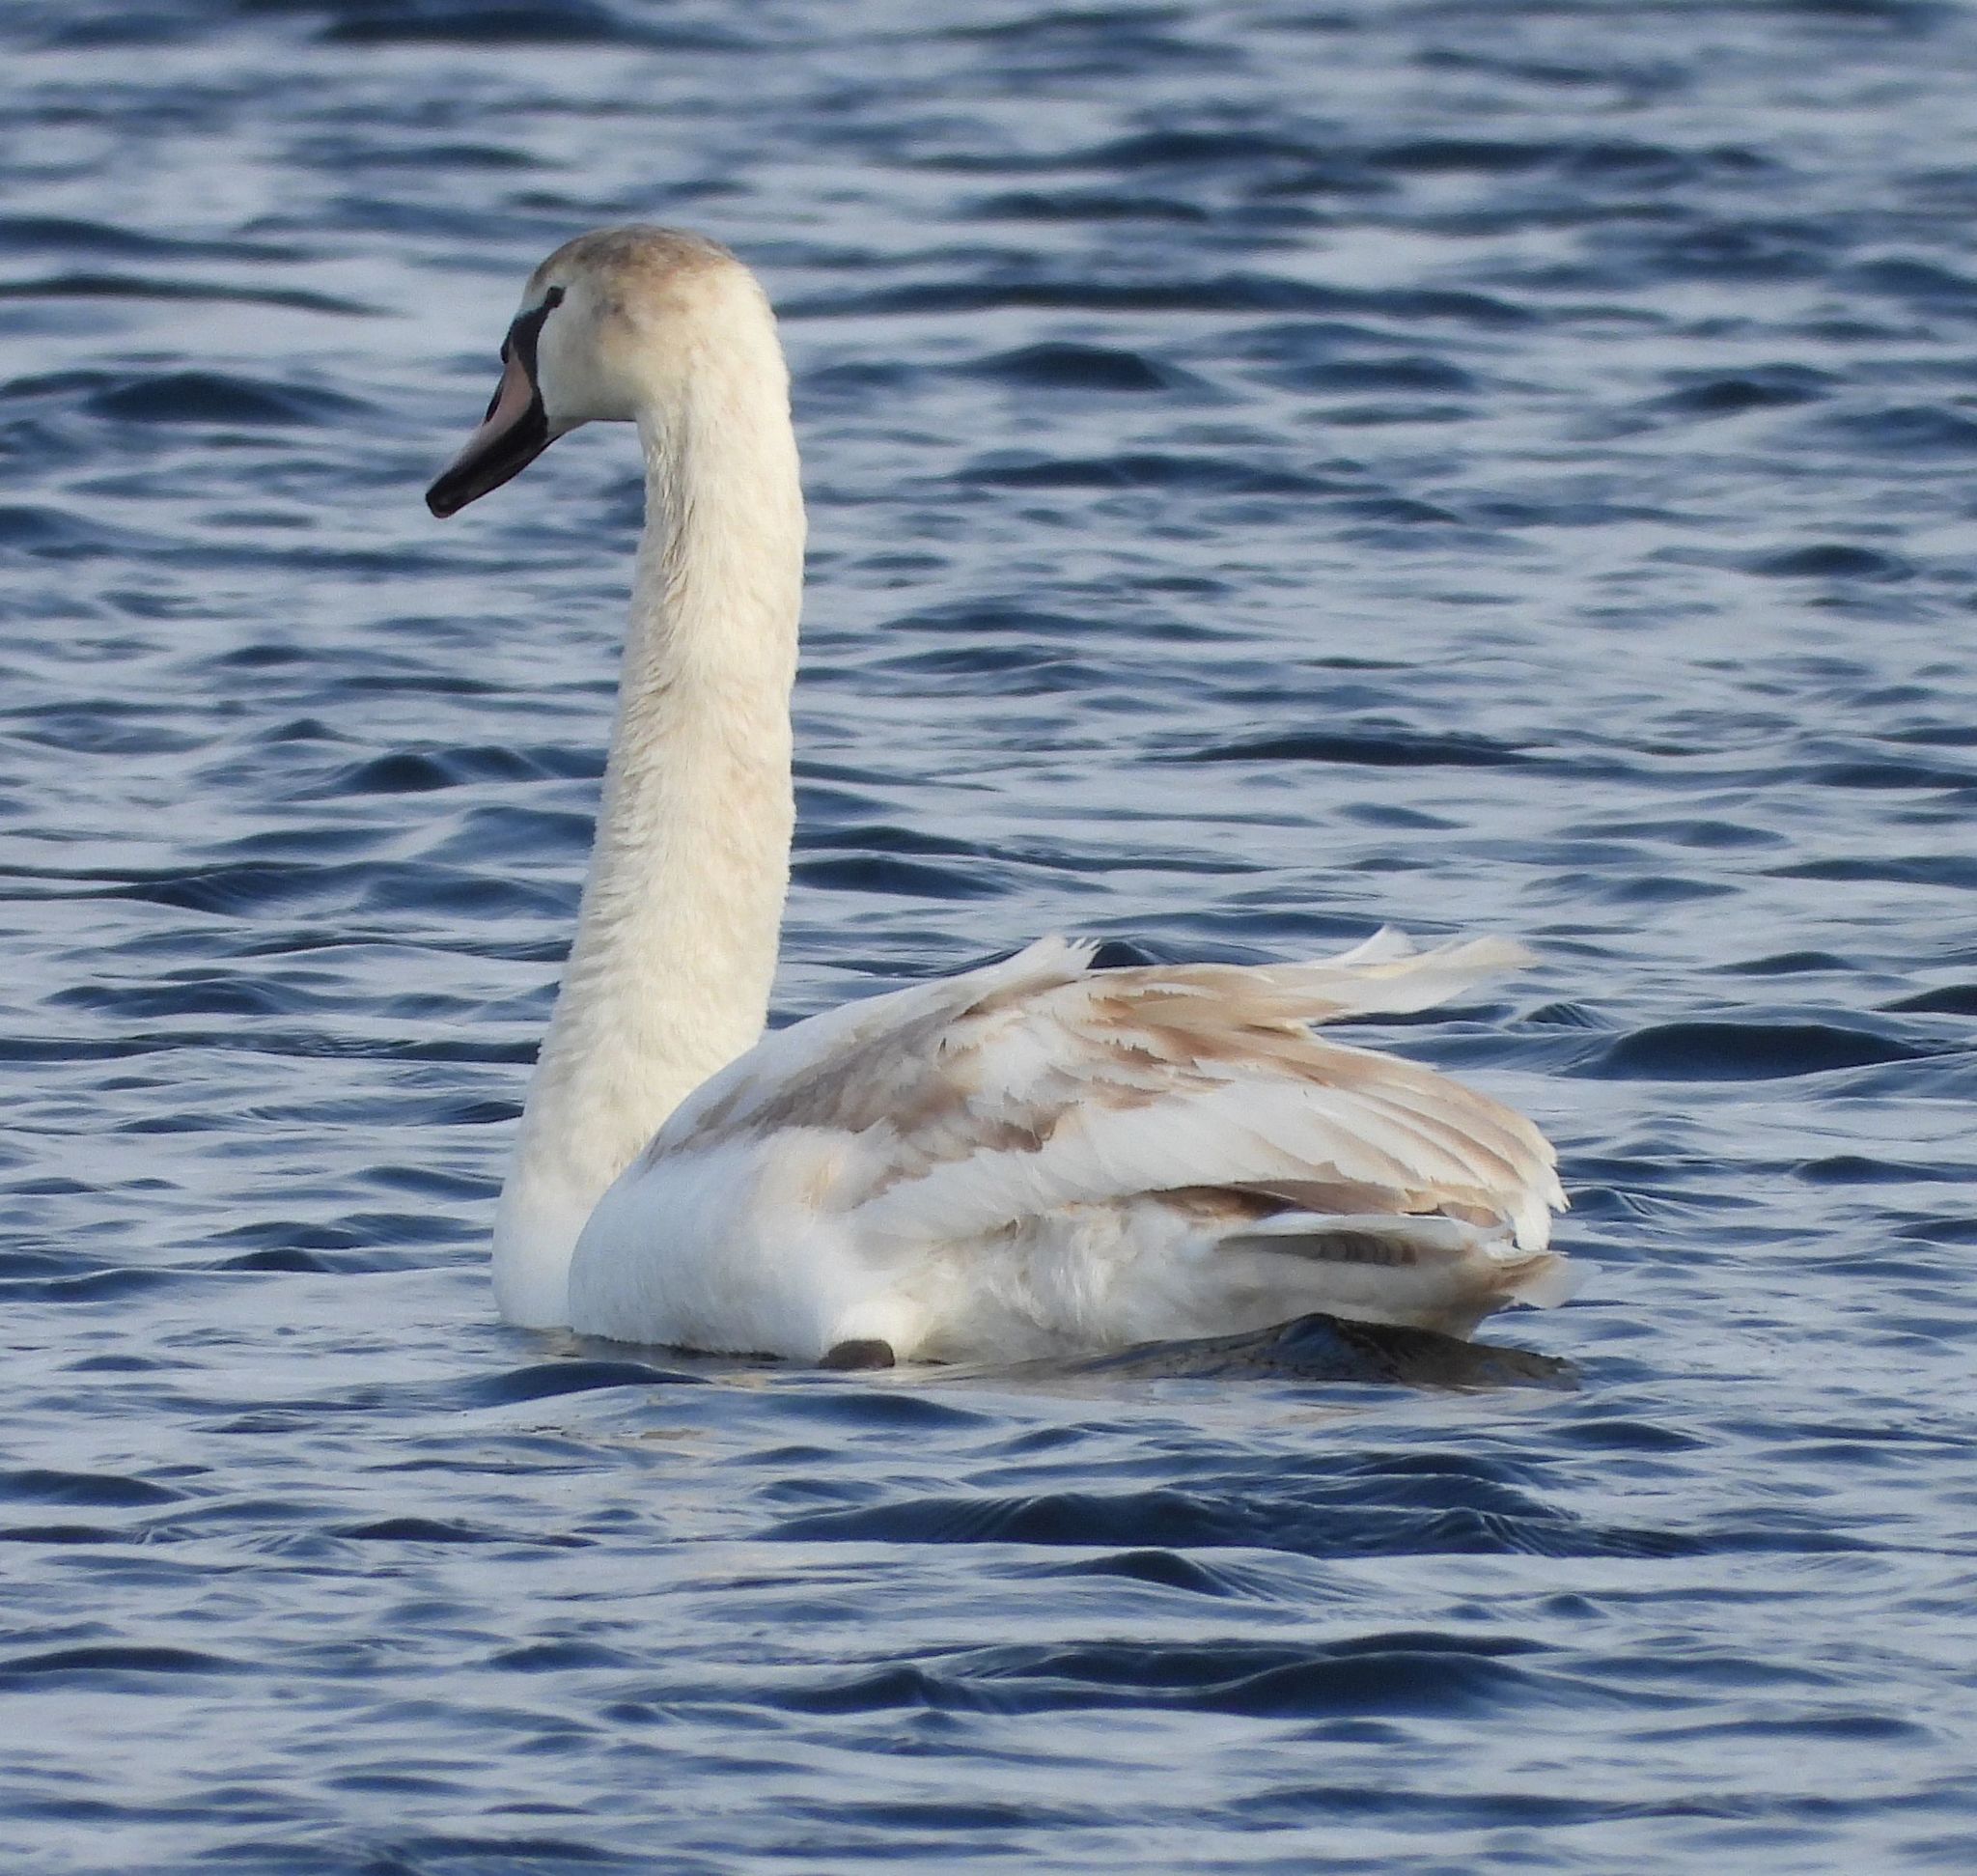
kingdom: Animalia
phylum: Chordata
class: Aves
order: Anseriformes
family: Anatidae
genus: Cygnus
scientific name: Cygnus olor
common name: Mute swan
